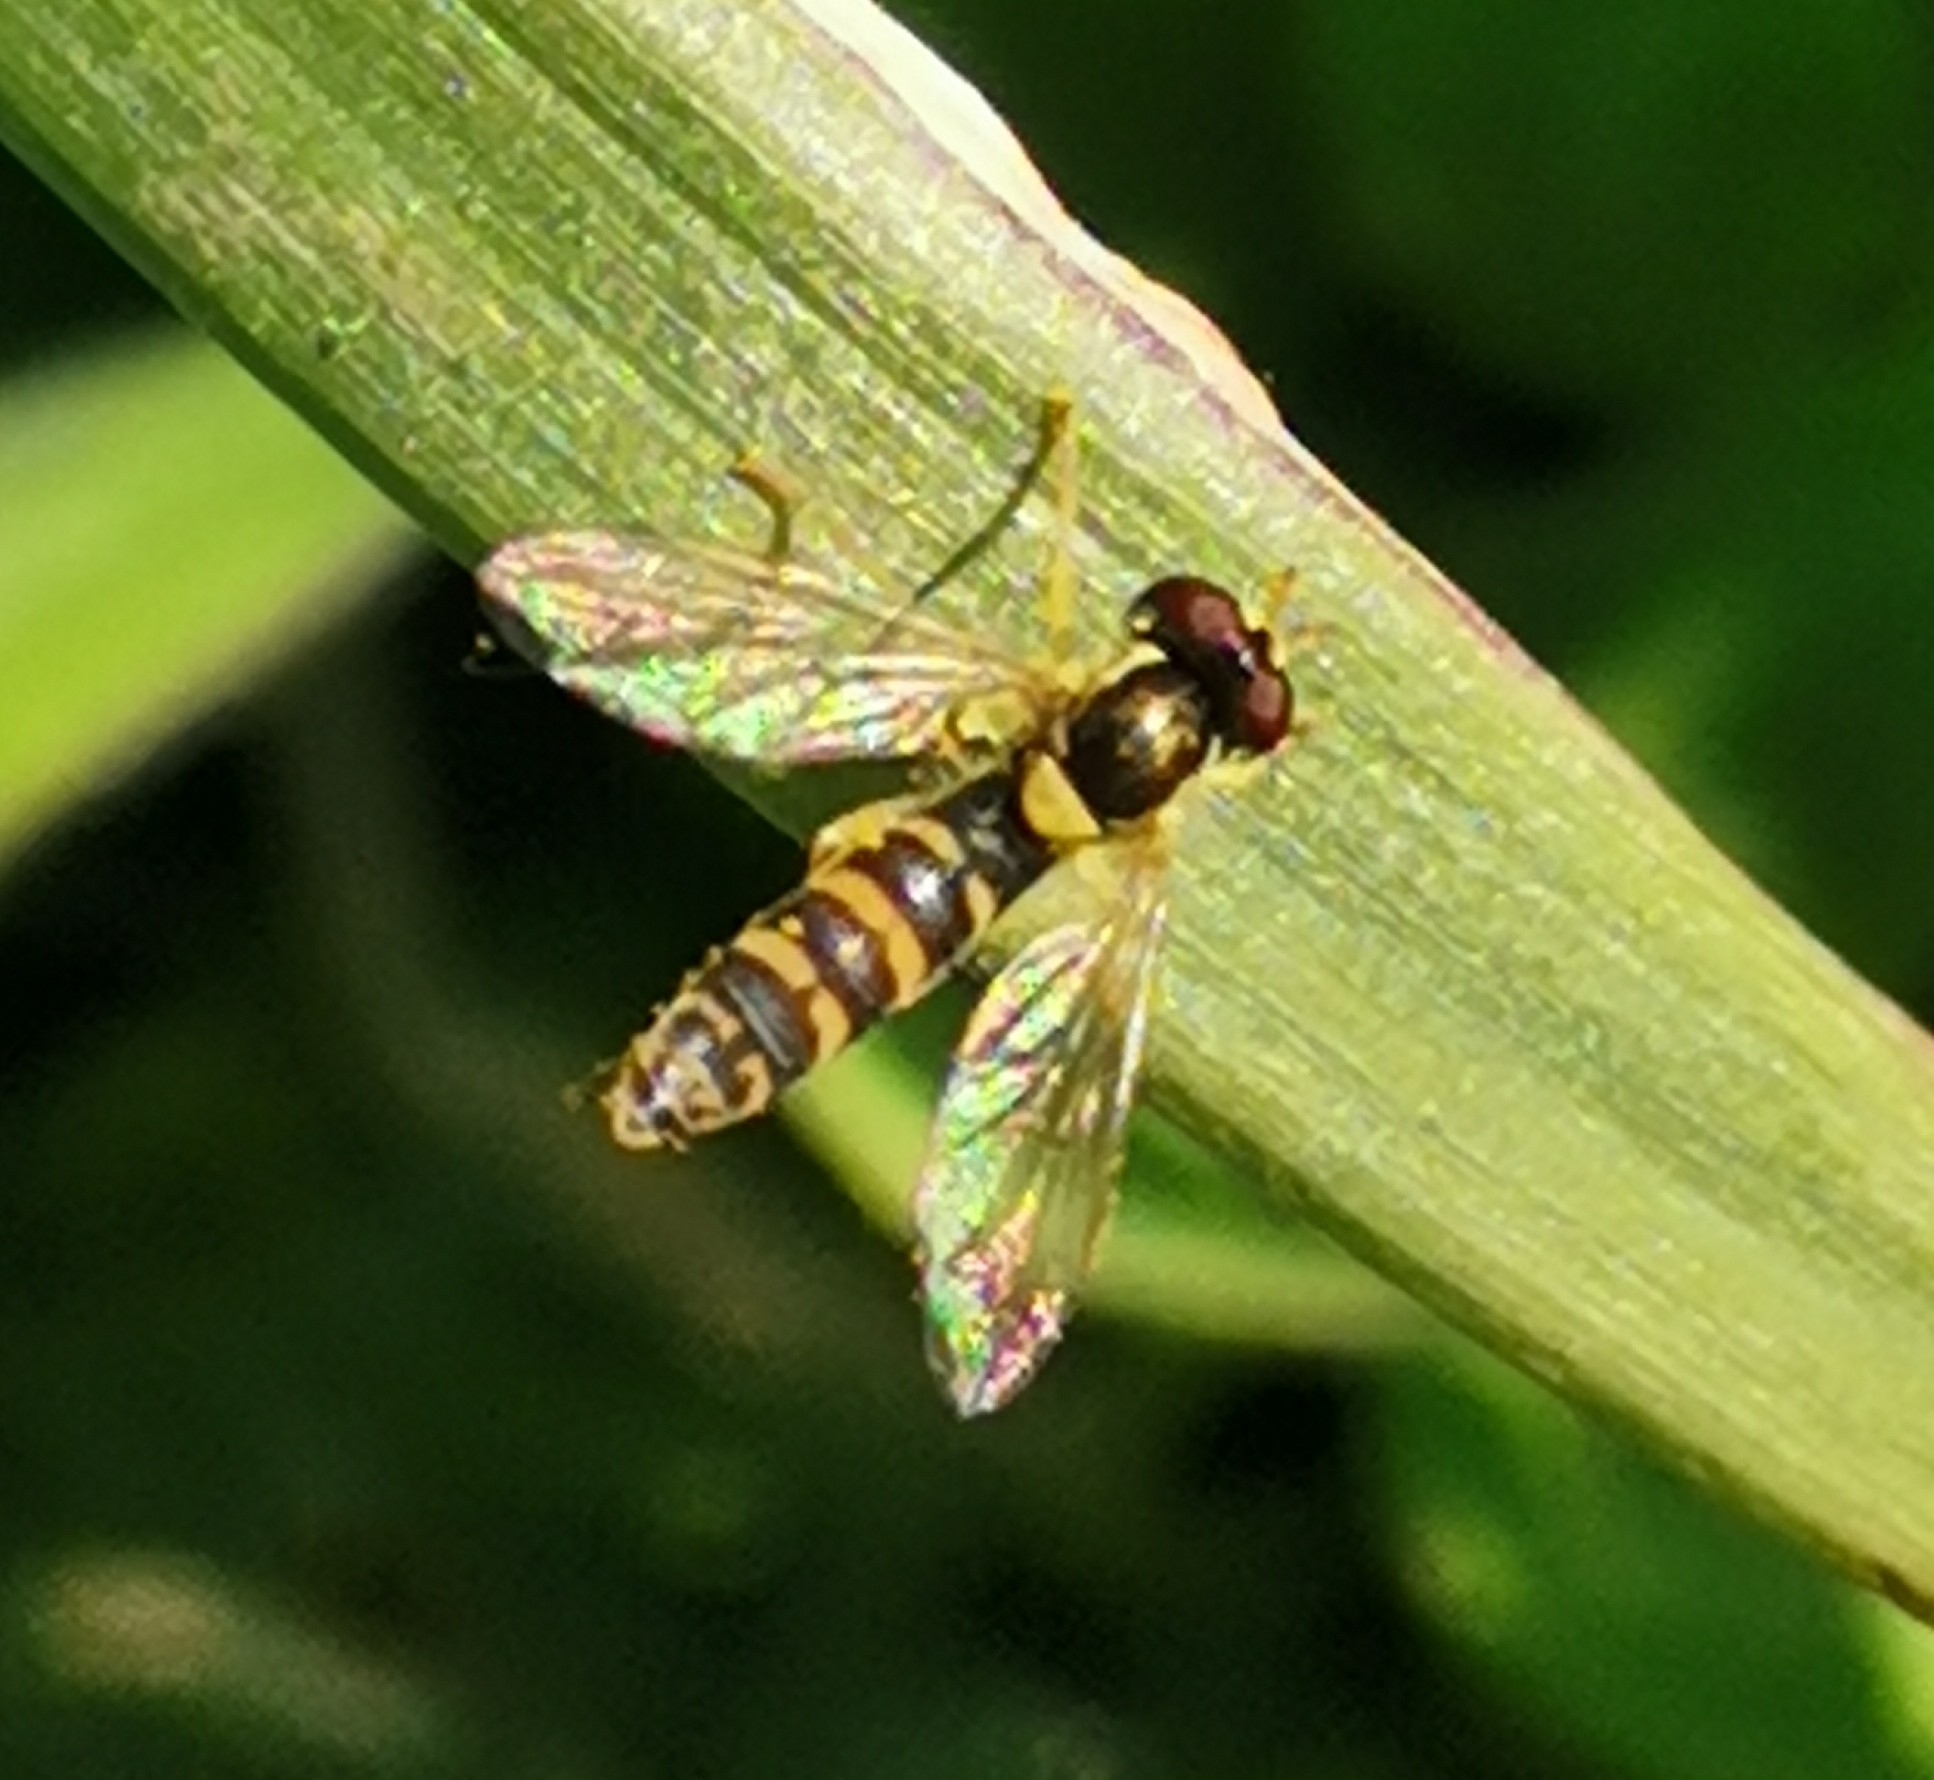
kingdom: Animalia
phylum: Arthropoda
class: Insecta
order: Diptera
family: Syrphidae
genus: Sphaerophoria
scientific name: Sphaerophoria
